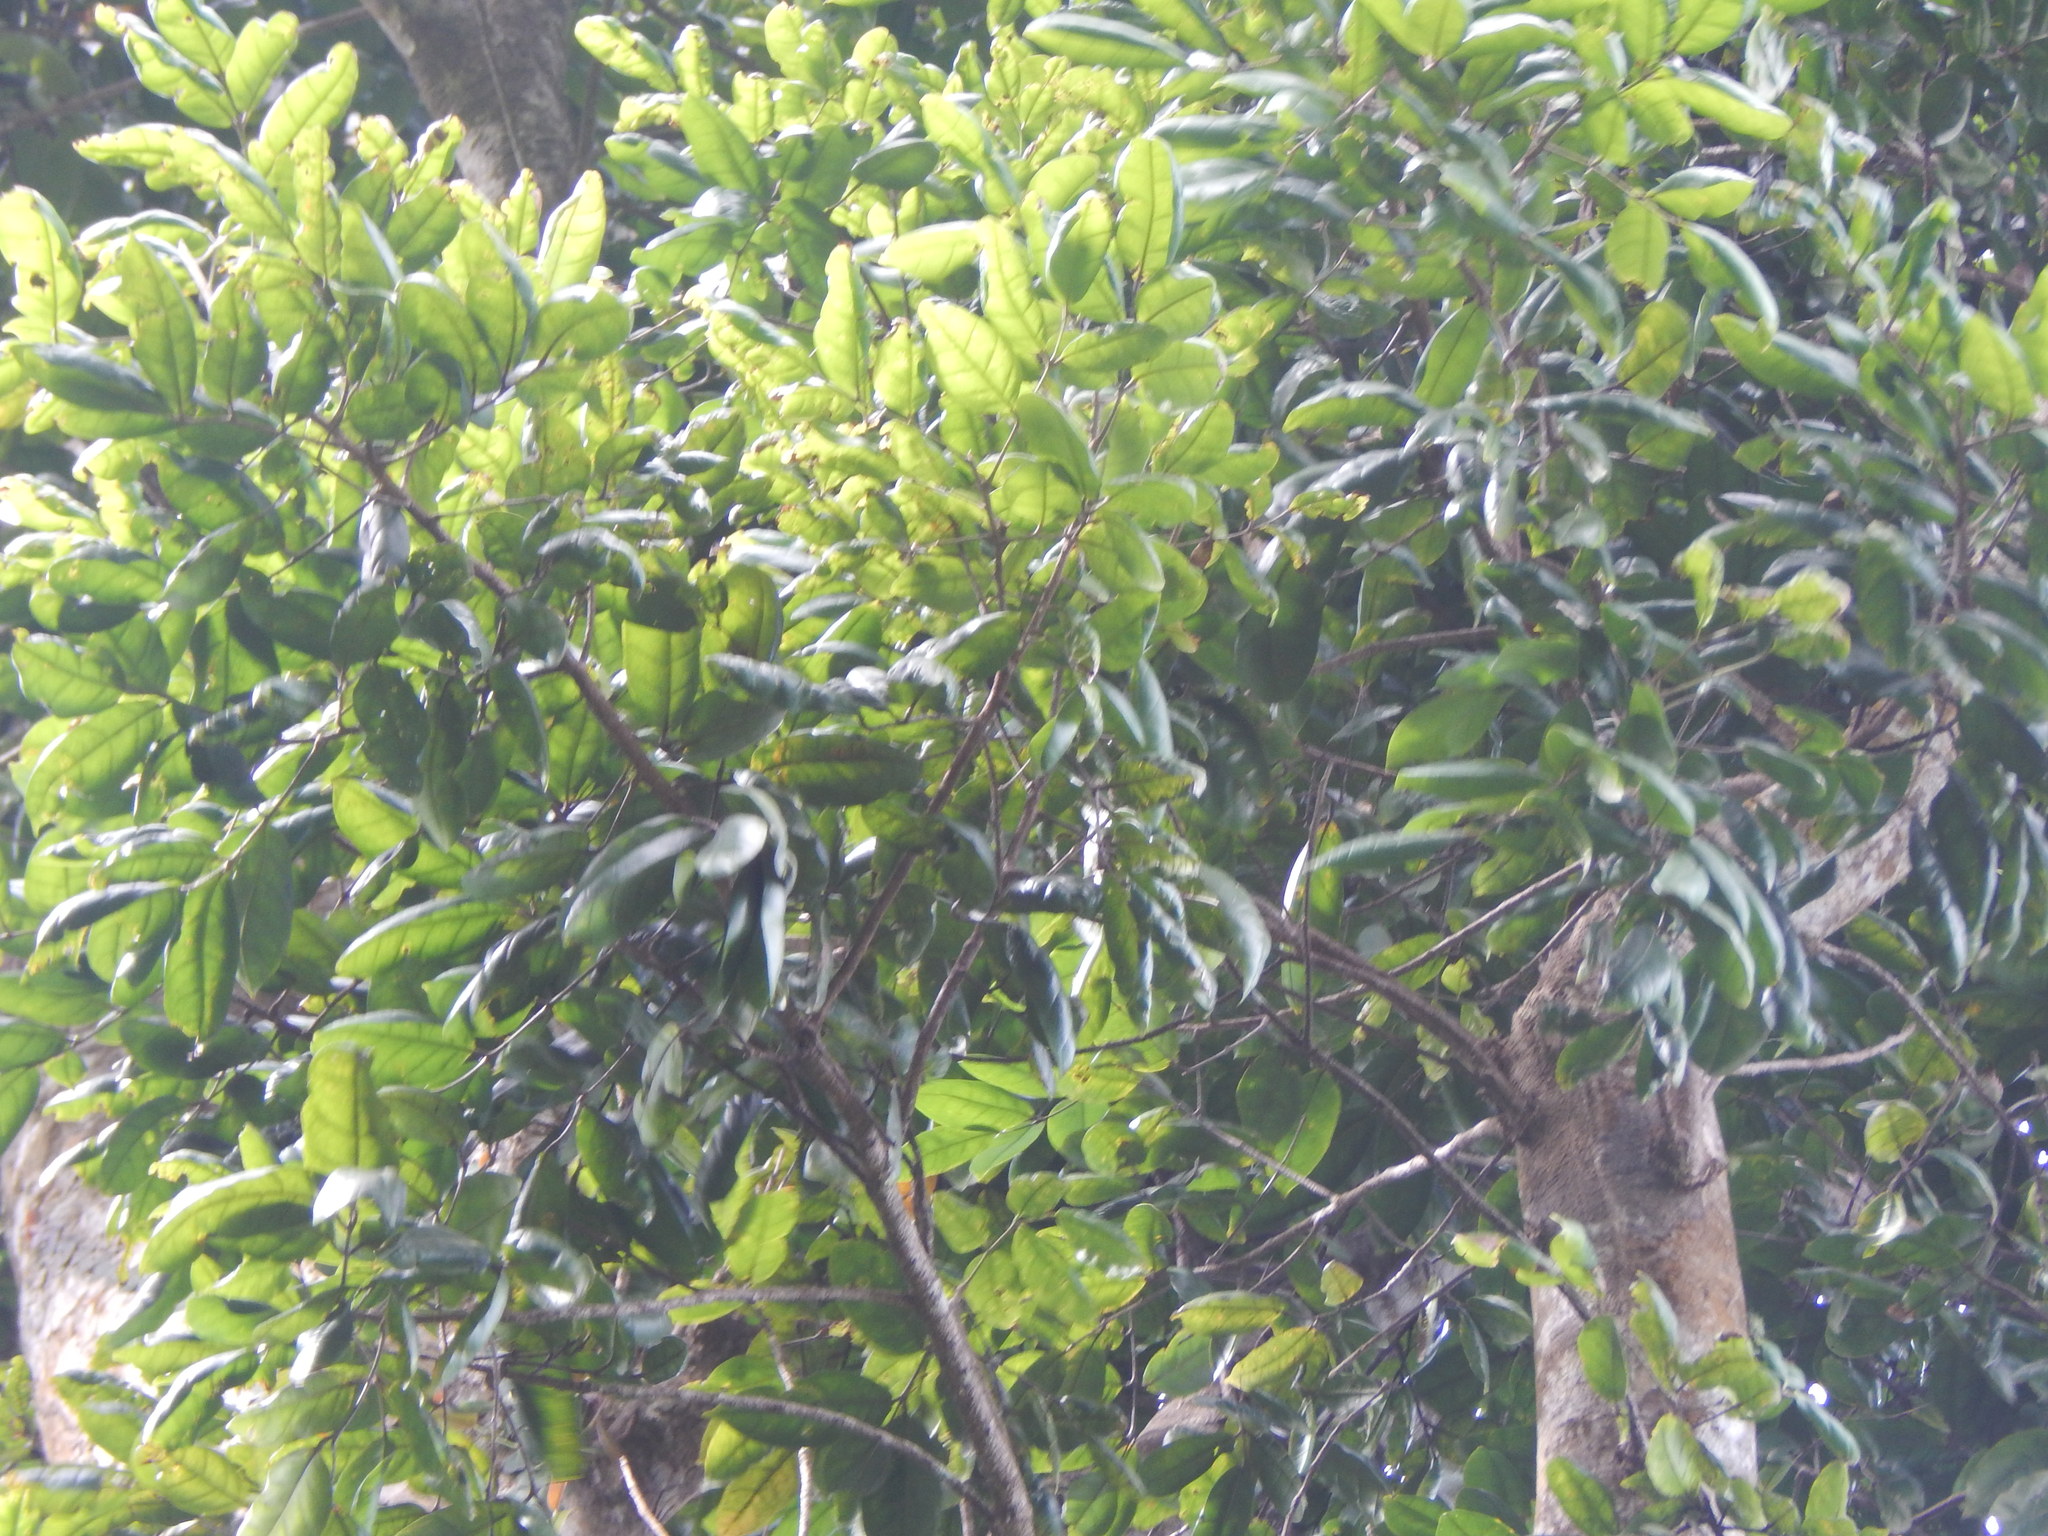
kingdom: Plantae
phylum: Tracheophyta
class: Magnoliopsida
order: Sapindales
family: Burseraceae
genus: Dacryodes
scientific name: Dacryodes excelsa
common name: Candlewood
